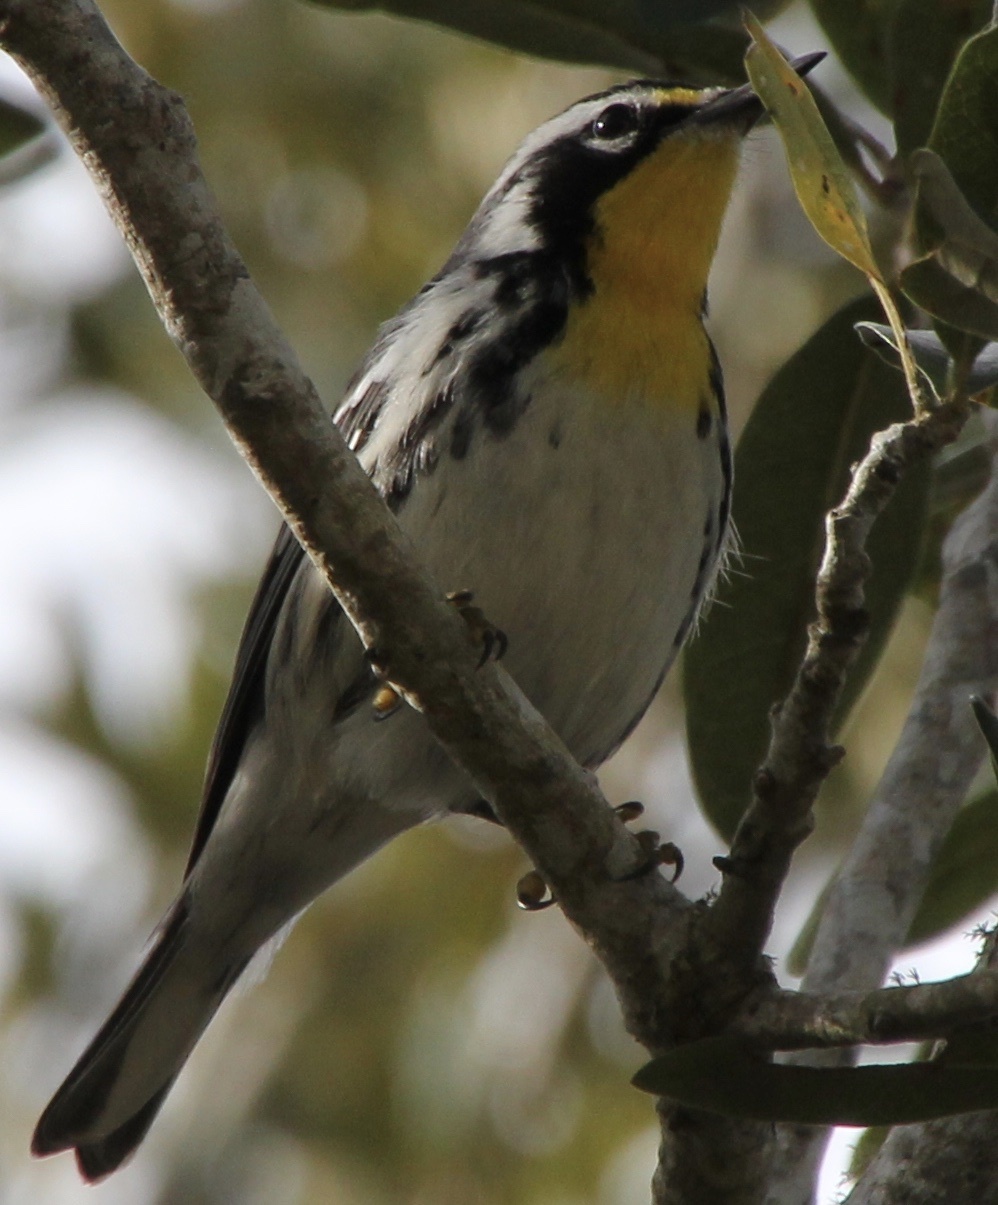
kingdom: Animalia
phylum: Chordata
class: Aves
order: Passeriformes
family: Parulidae
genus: Setophaga
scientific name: Setophaga dominica
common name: Yellow-throated warbler
